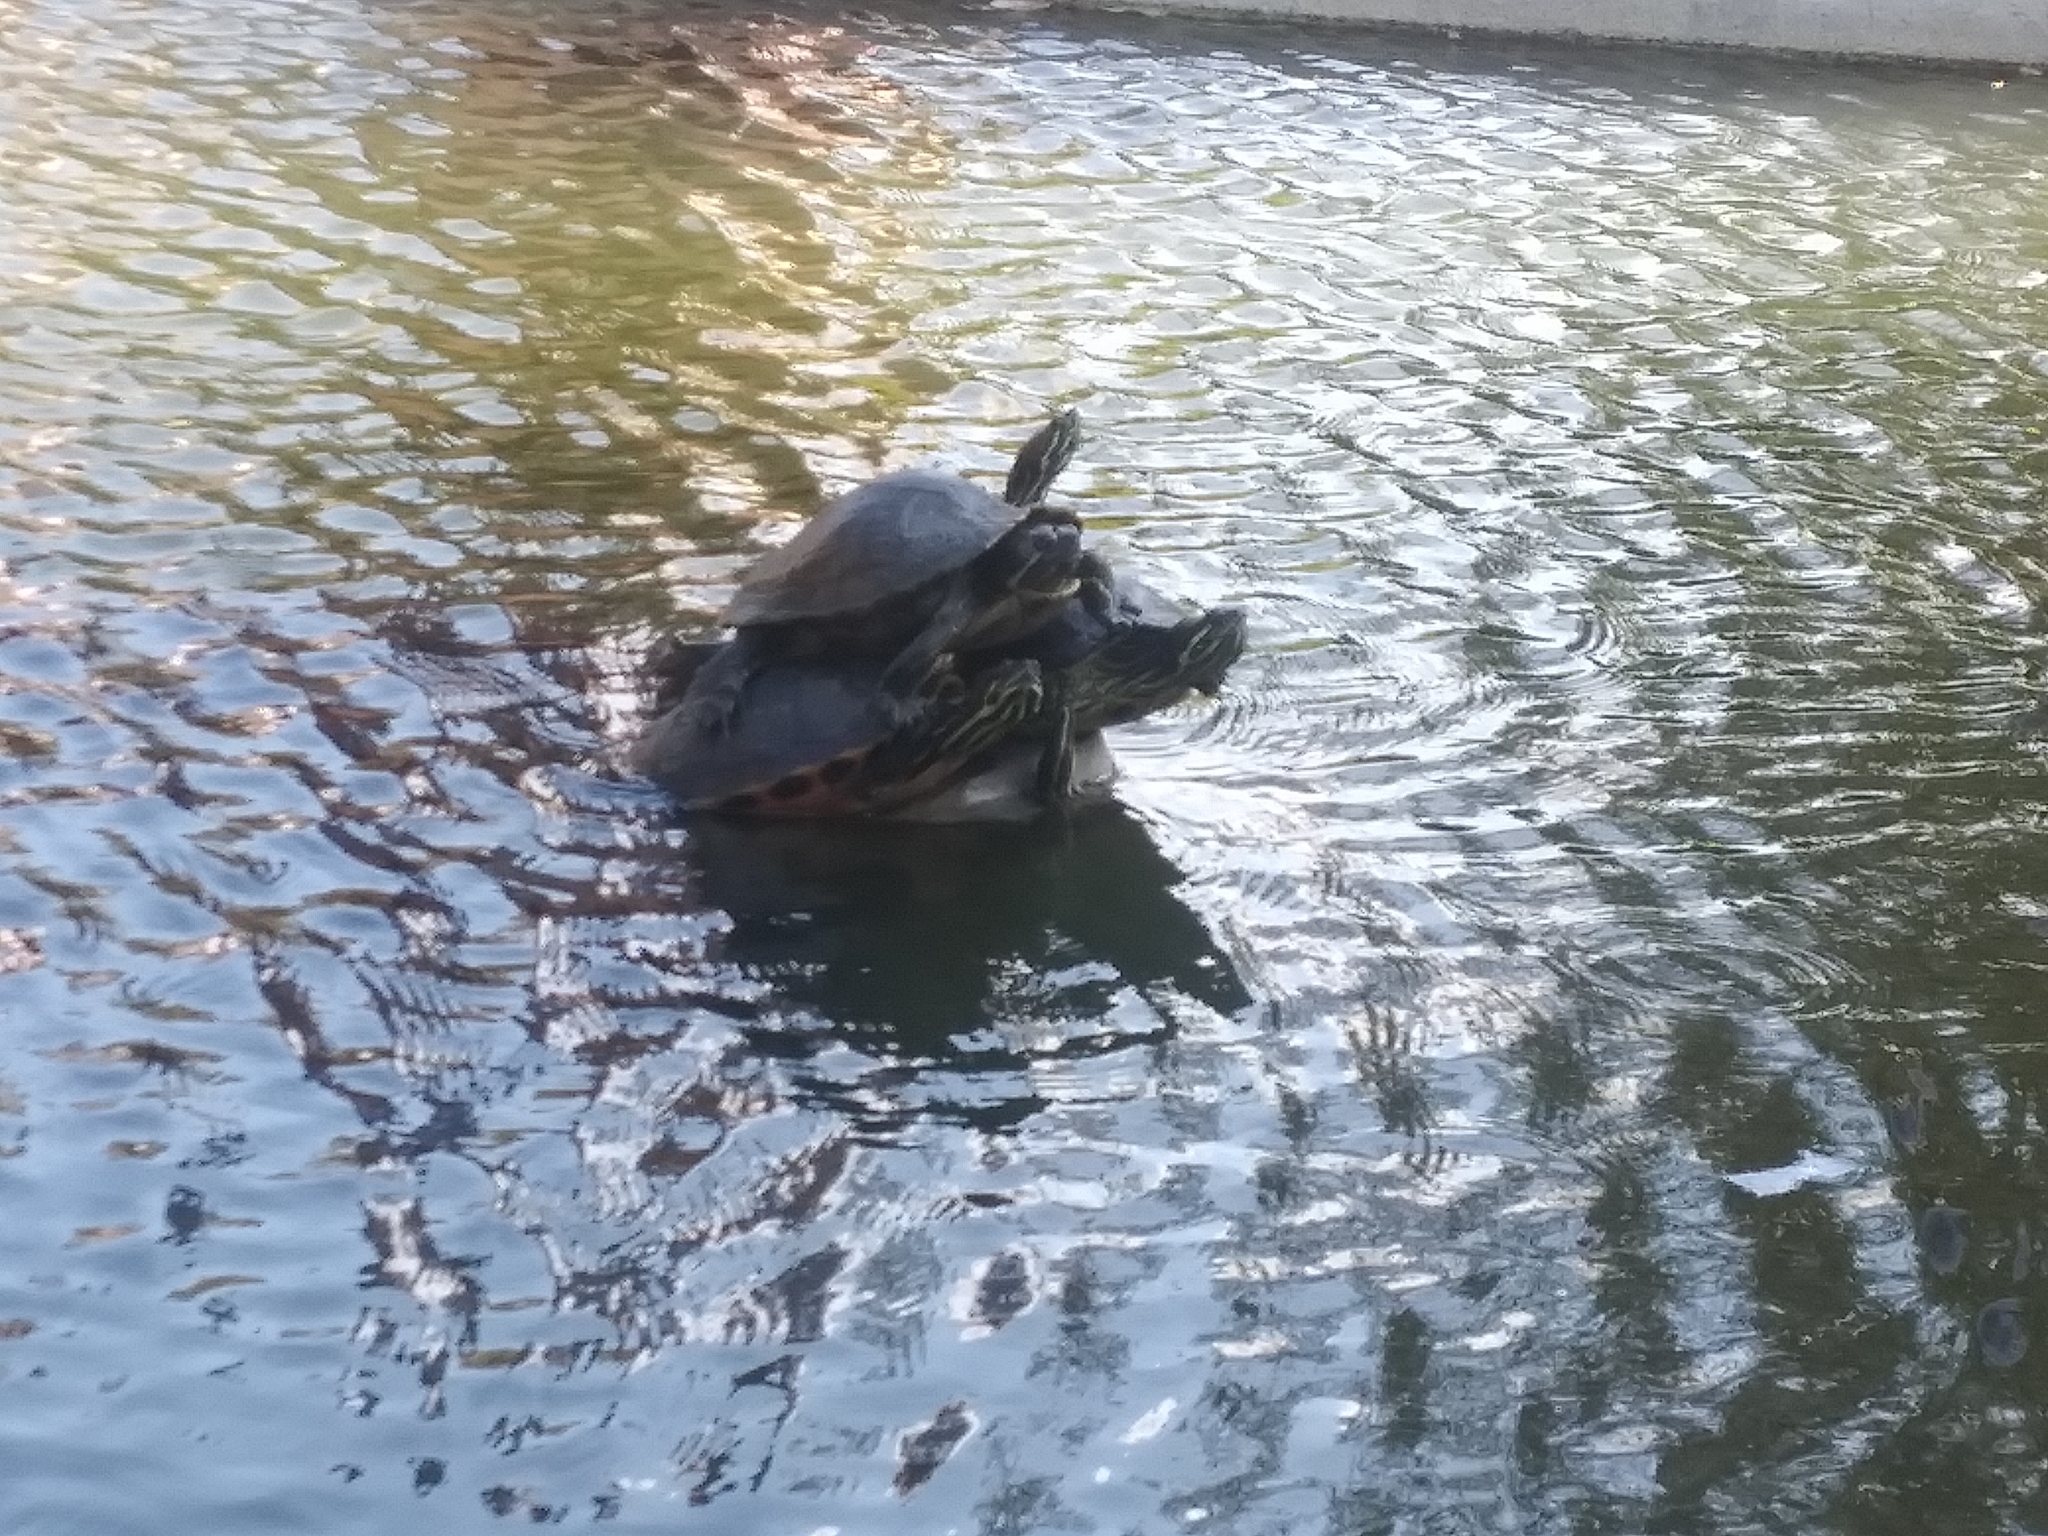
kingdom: Animalia
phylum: Chordata
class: Testudines
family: Emydidae
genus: Pseudemys
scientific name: Pseudemys nelsoni
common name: Florida red-bellied turtle
